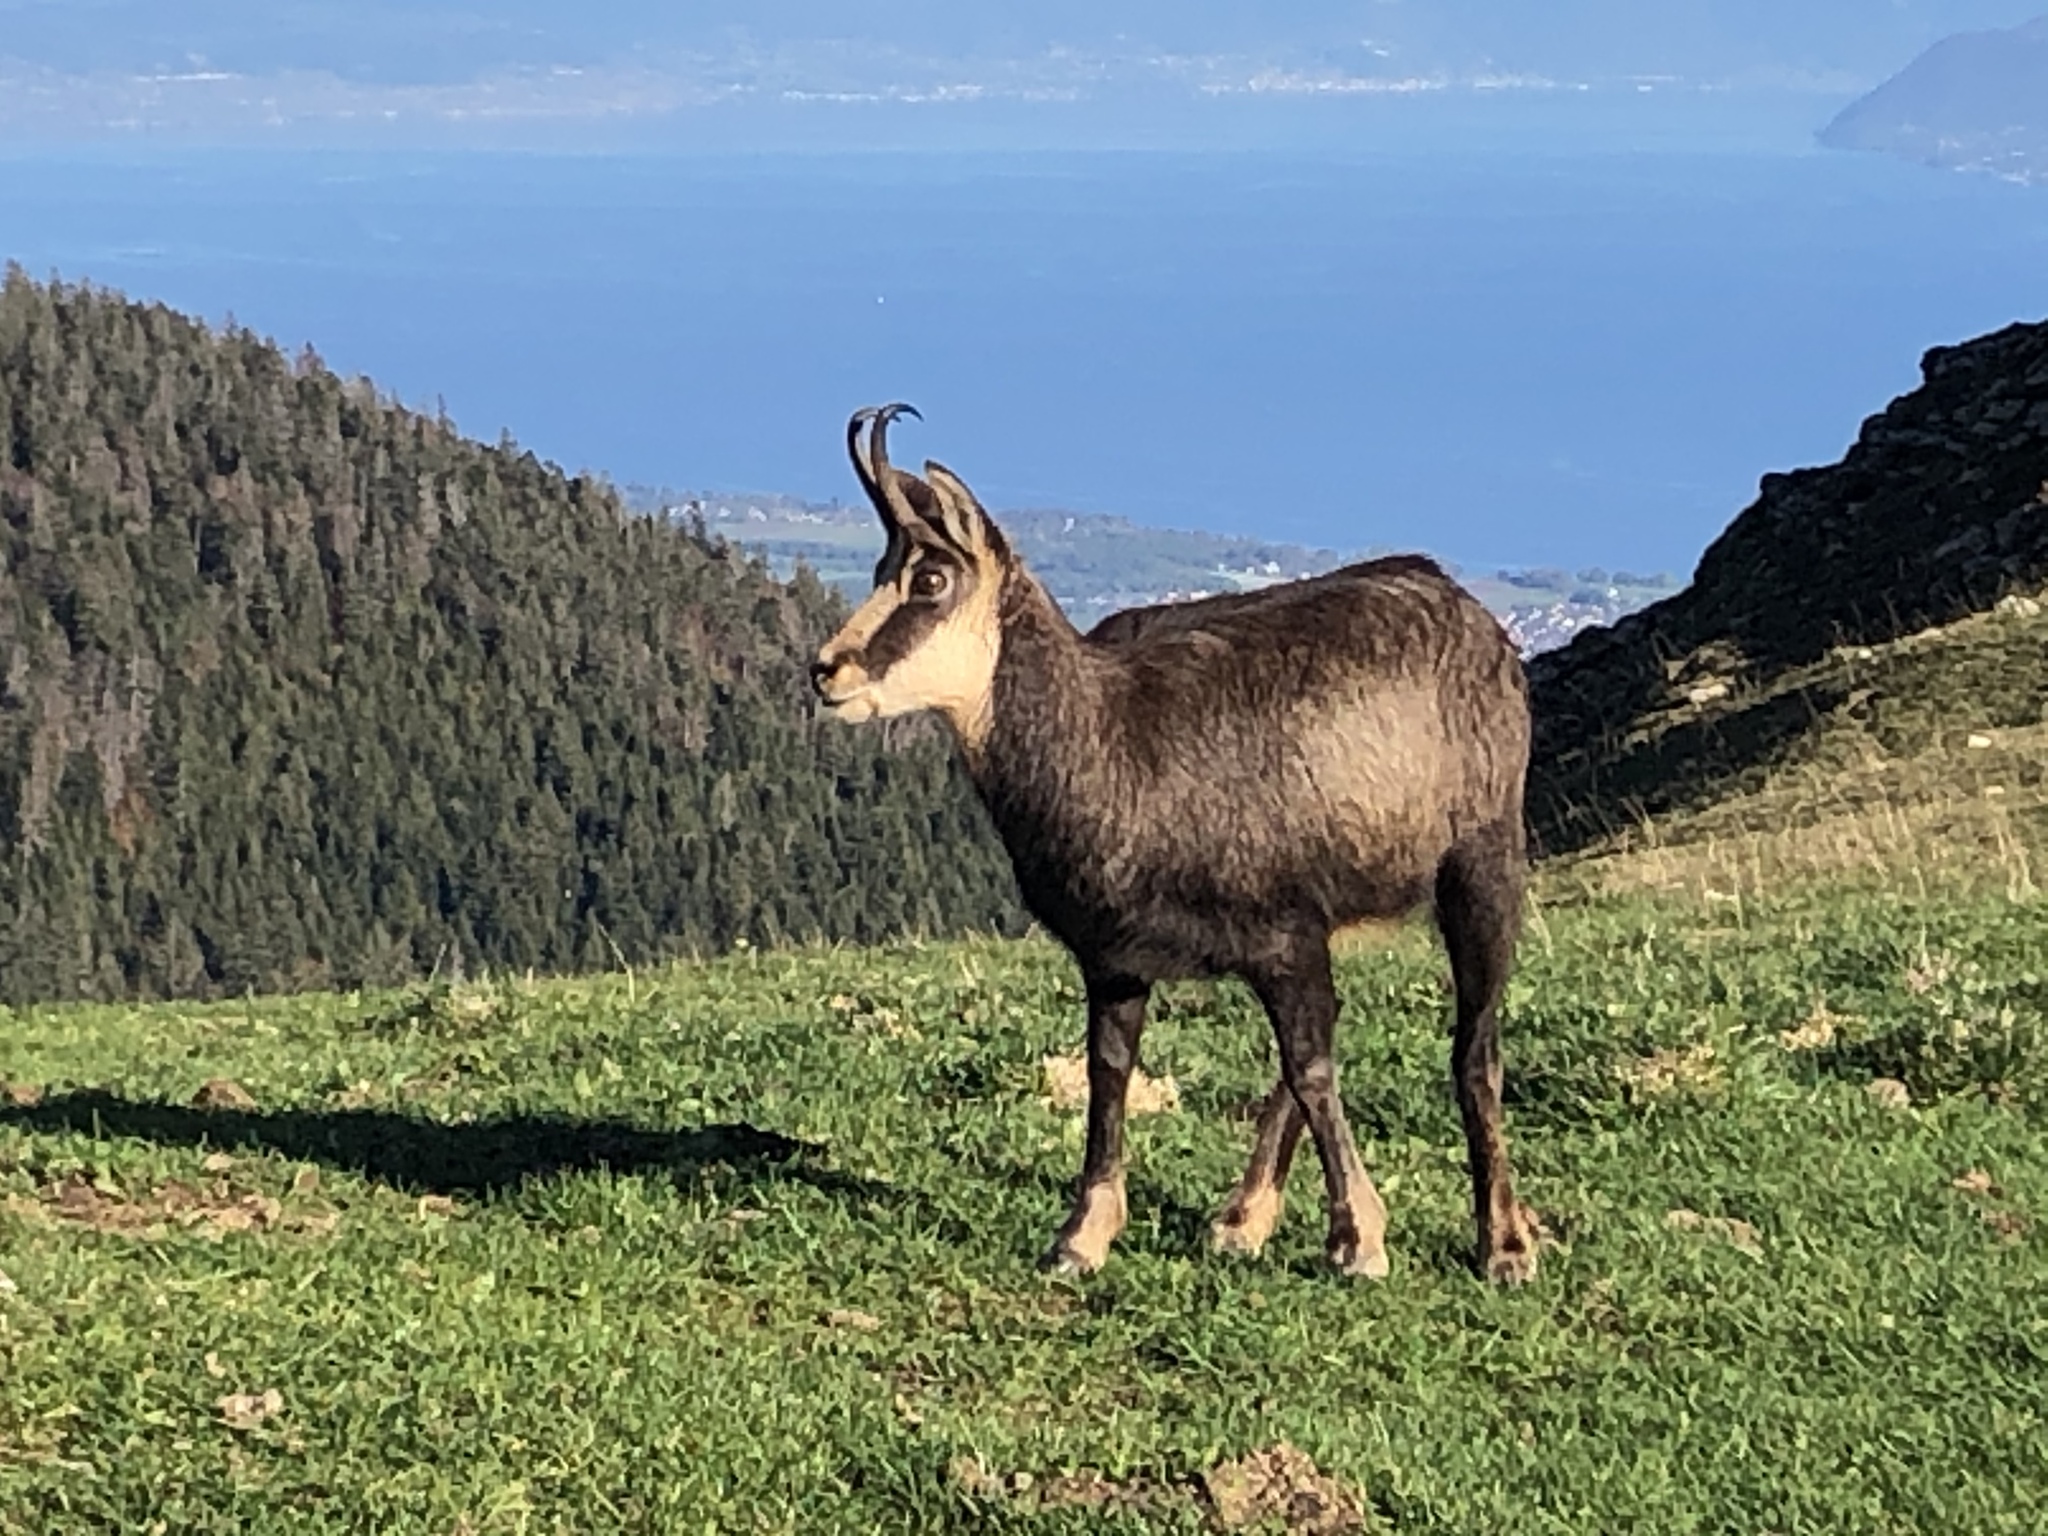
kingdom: Animalia
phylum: Chordata
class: Mammalia
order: Artiodactyla
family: Bovidae
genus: Rupicapra
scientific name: Rupicapra rupicapra
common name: Chamois
